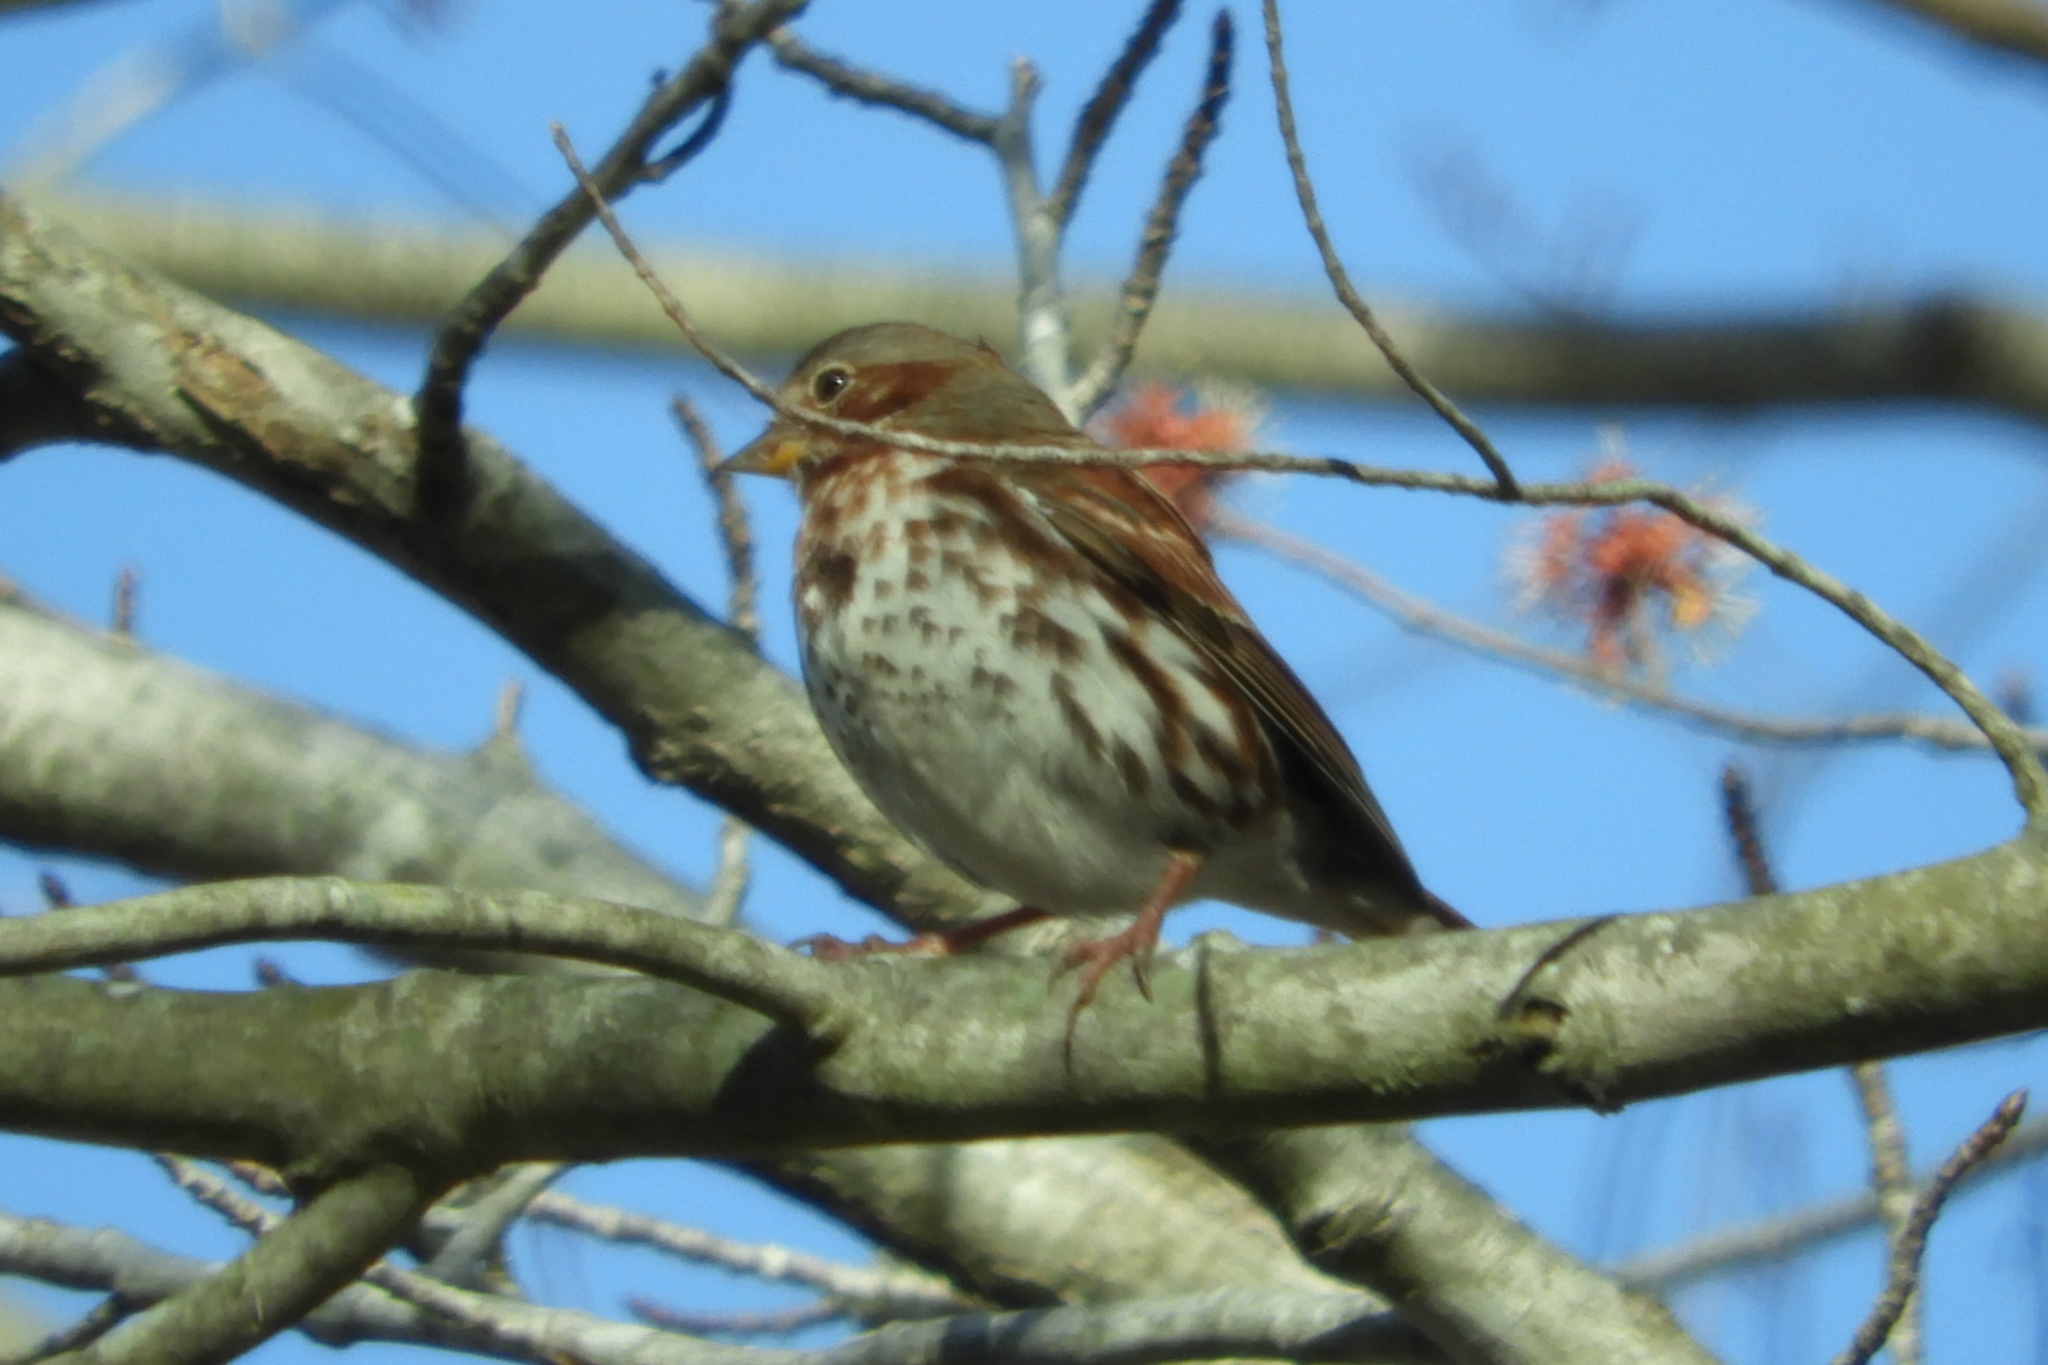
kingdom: Animalia
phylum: Chordata
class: Aves
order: Passeriformes
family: Passerellidae
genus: Passerella
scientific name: Passerella iliaca
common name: Fox sparrow
